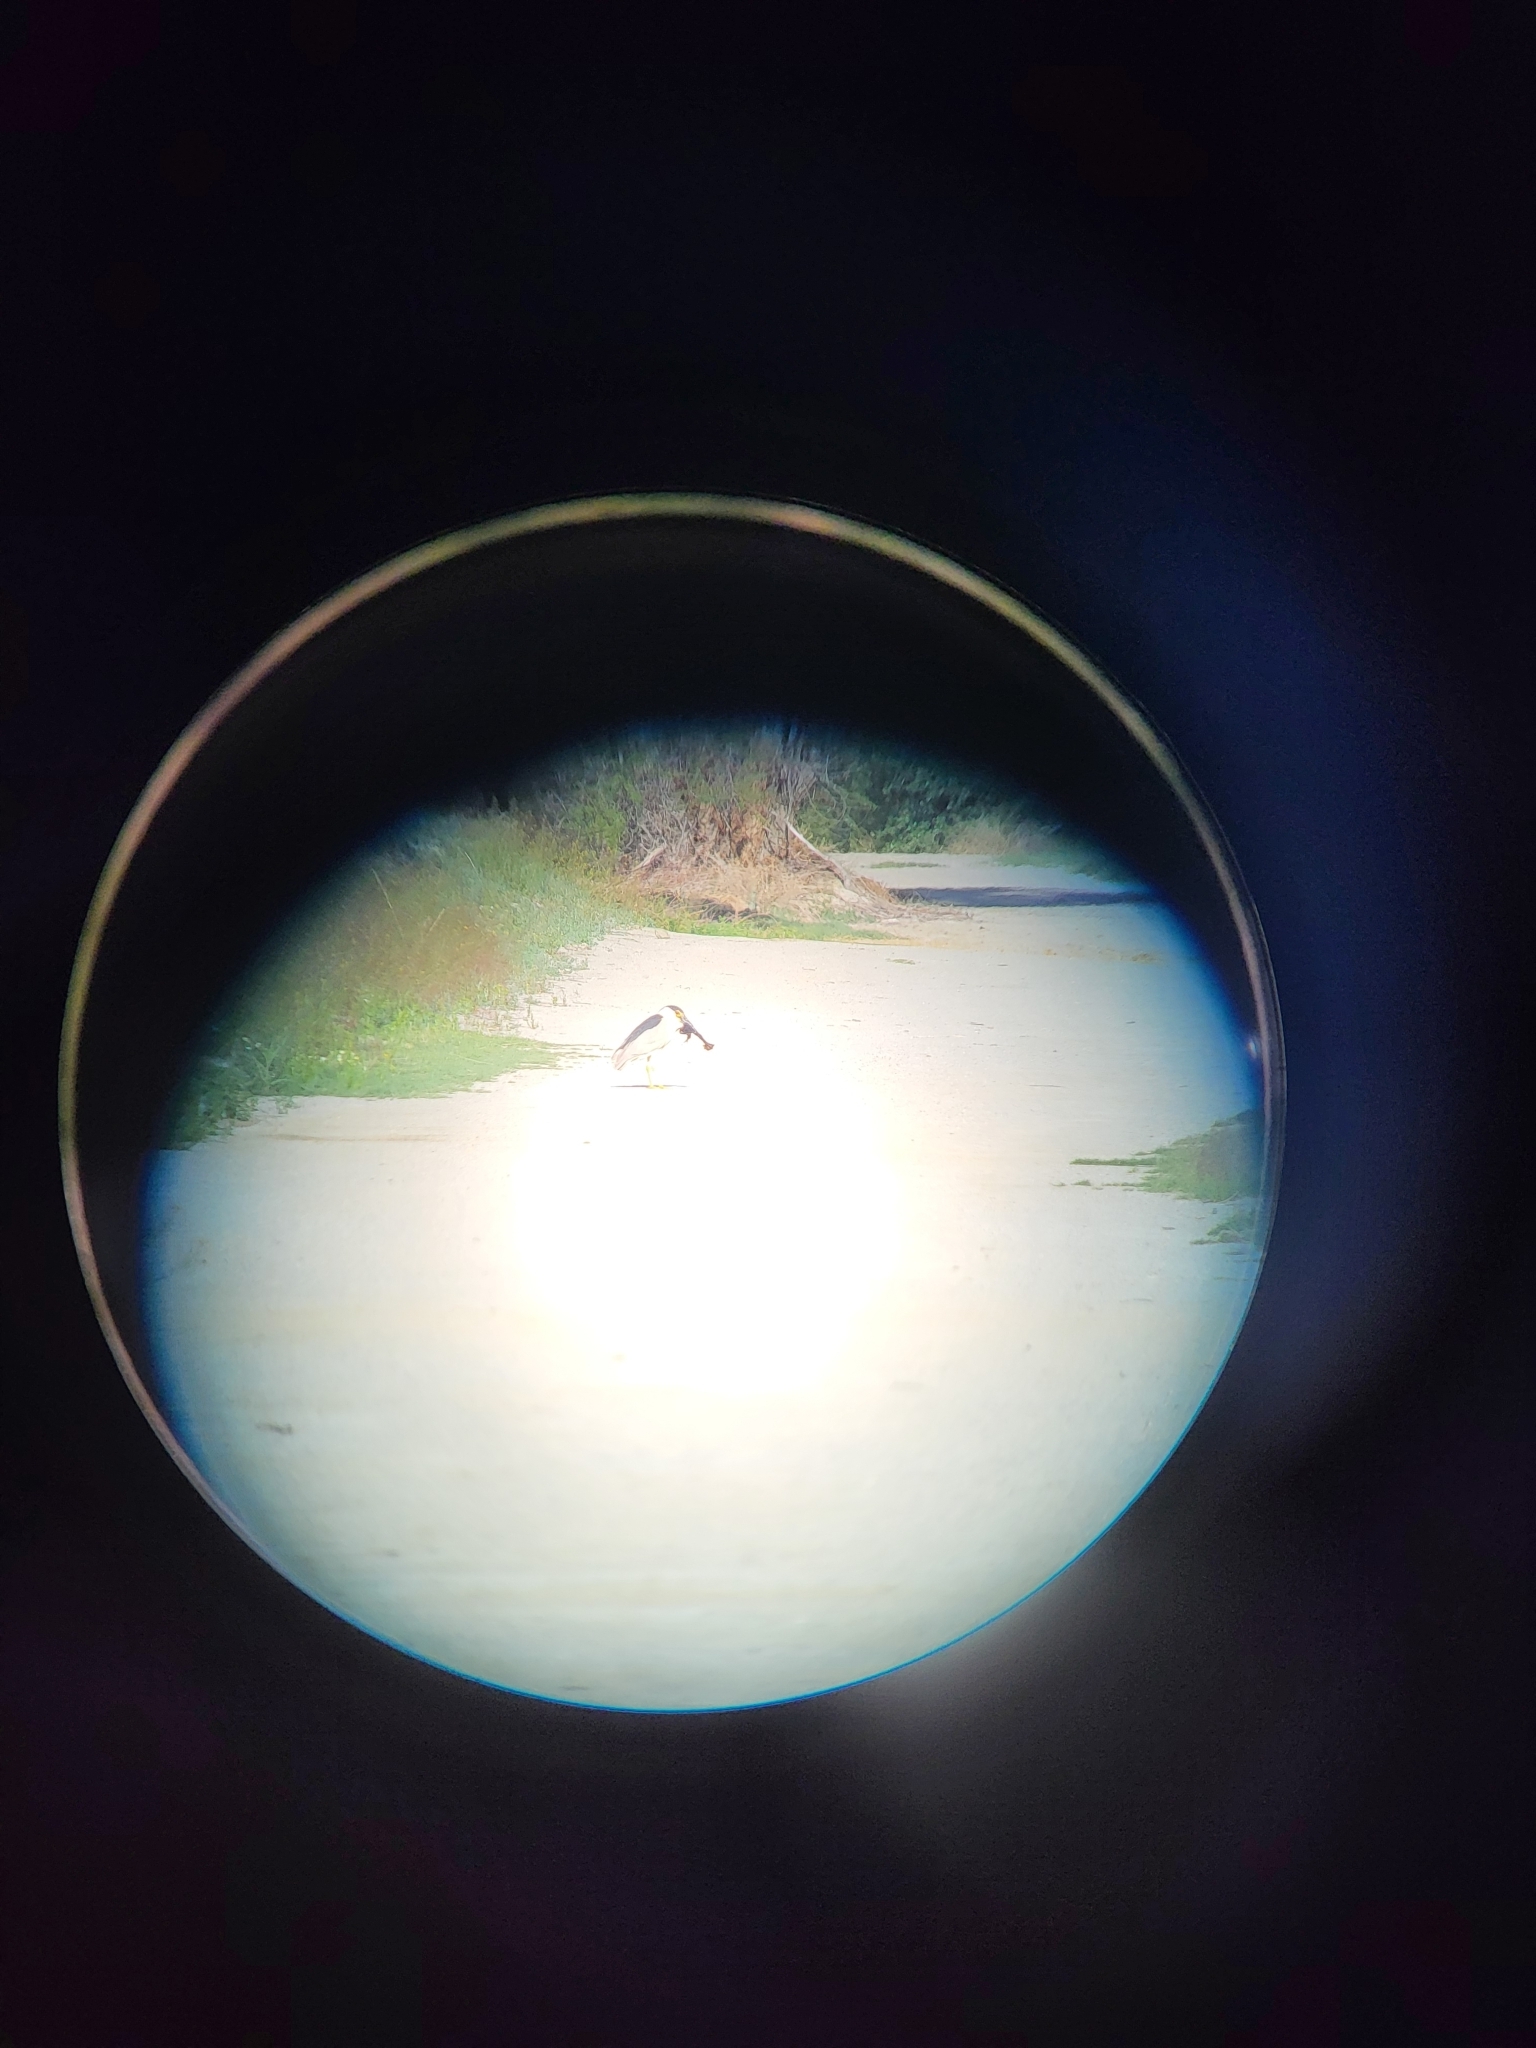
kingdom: Animalia
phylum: Chordata
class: Aves
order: Pelecaniformes
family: Ardeidae
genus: Nycticorax
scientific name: Nycticorax nycticorax
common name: Black-crowned night heron
